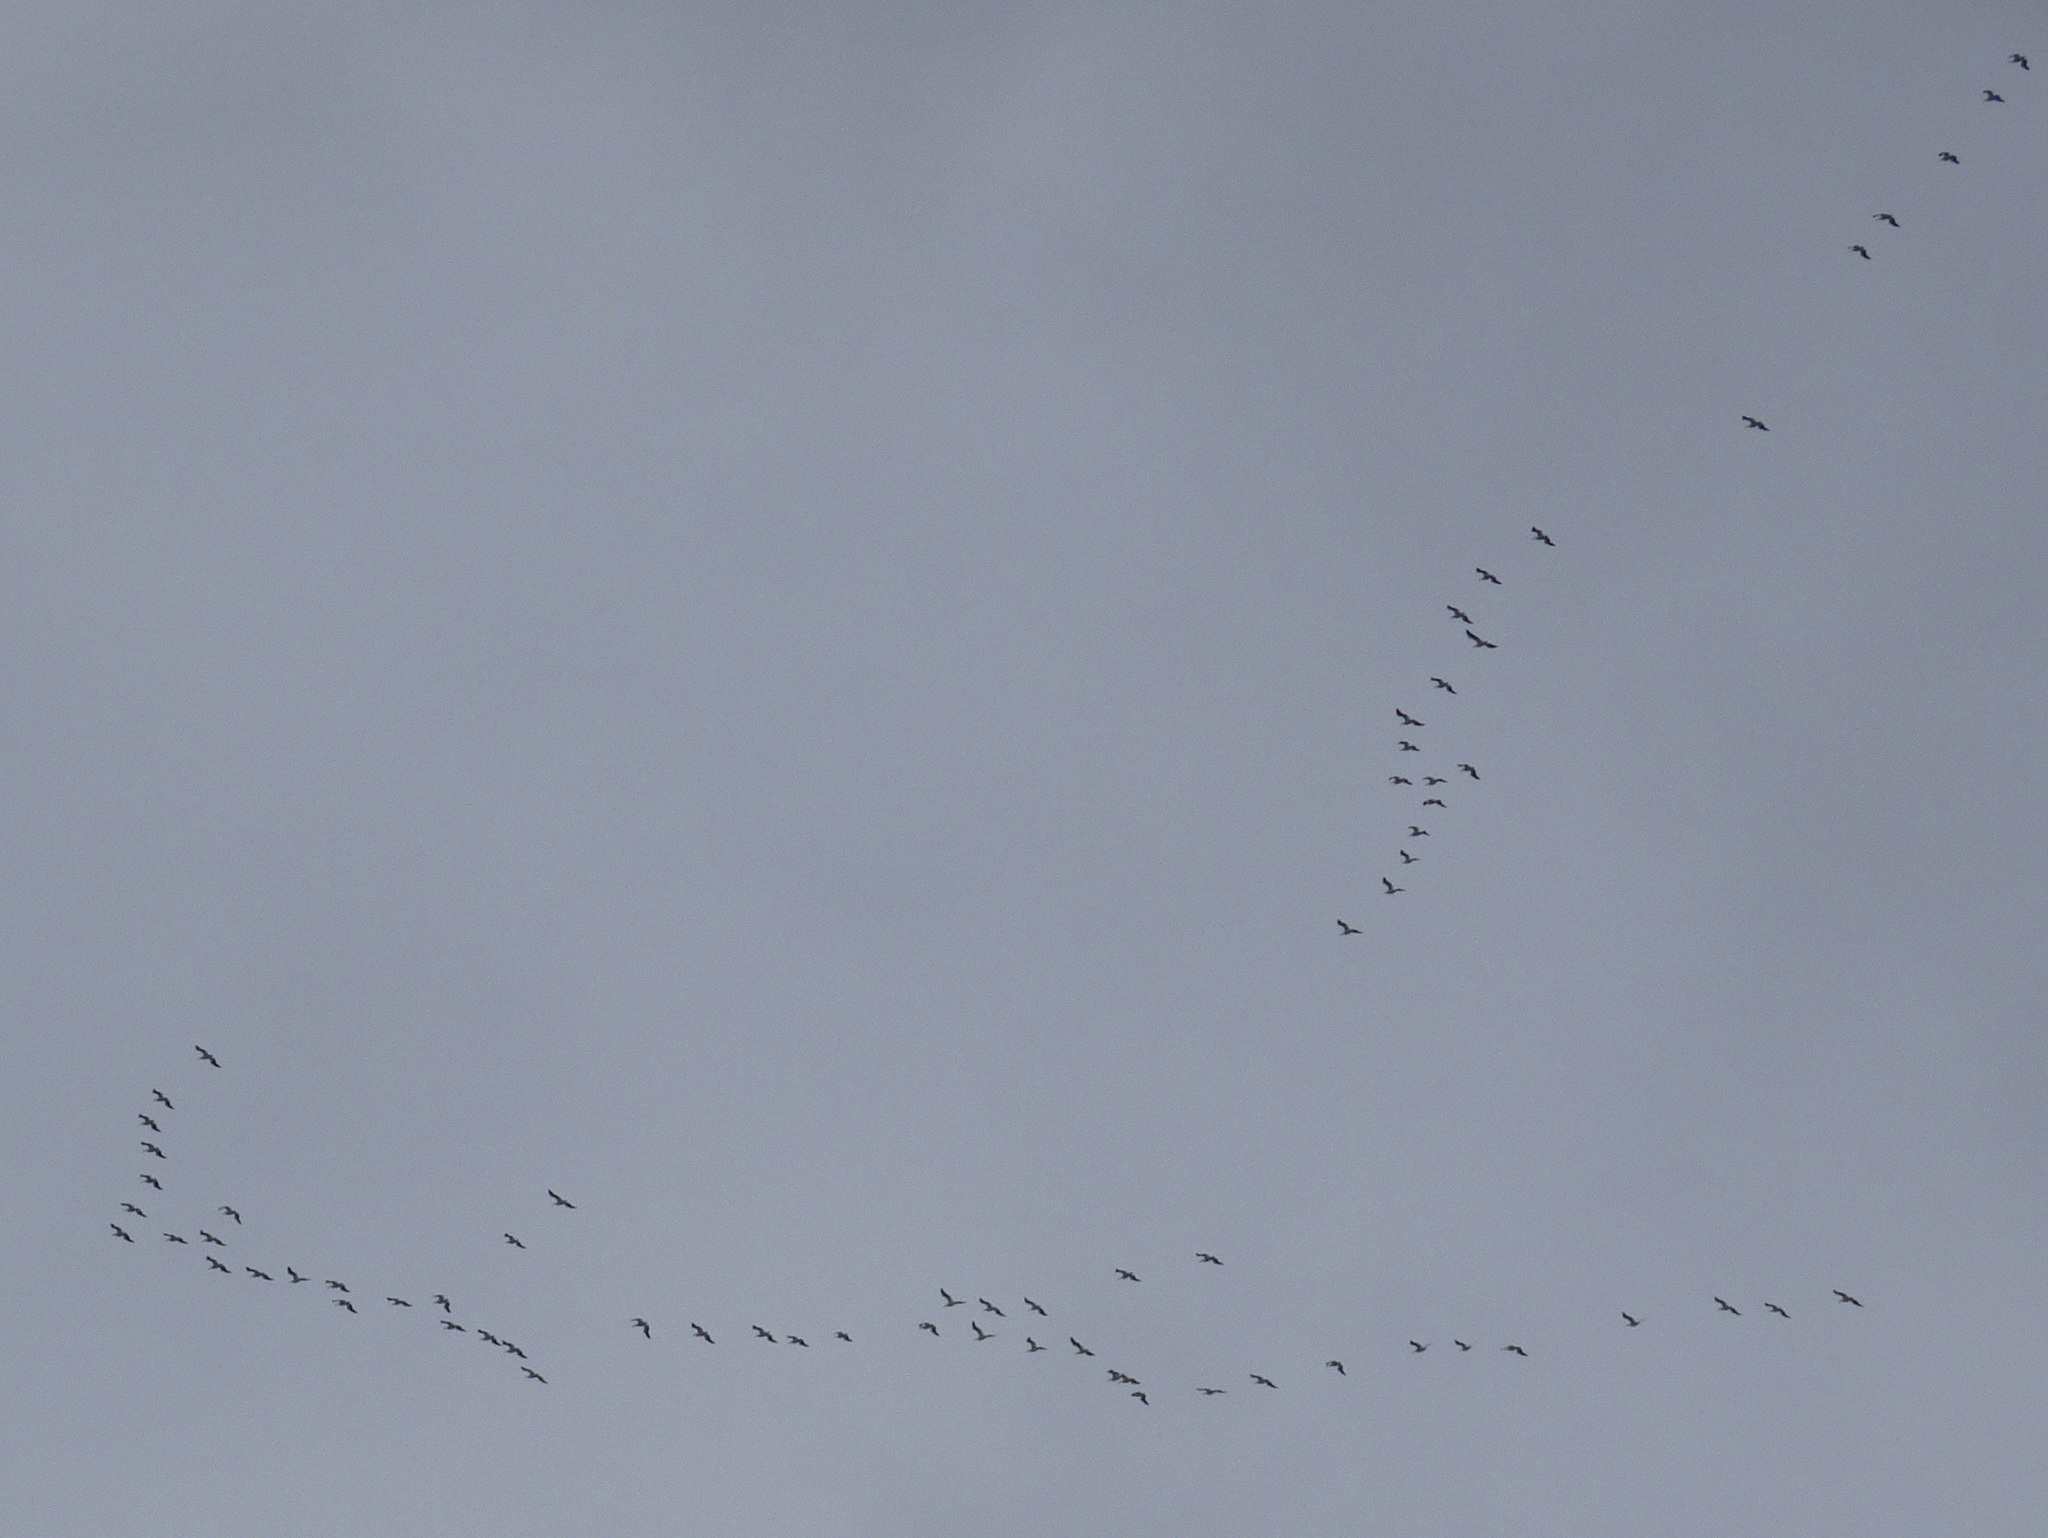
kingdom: Animalia
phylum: Chordata
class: Aves
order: Pelecaniformes
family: Pelecanidae
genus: Pelecanus
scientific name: Pelecanus erythrorhynchos
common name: American white pelican
